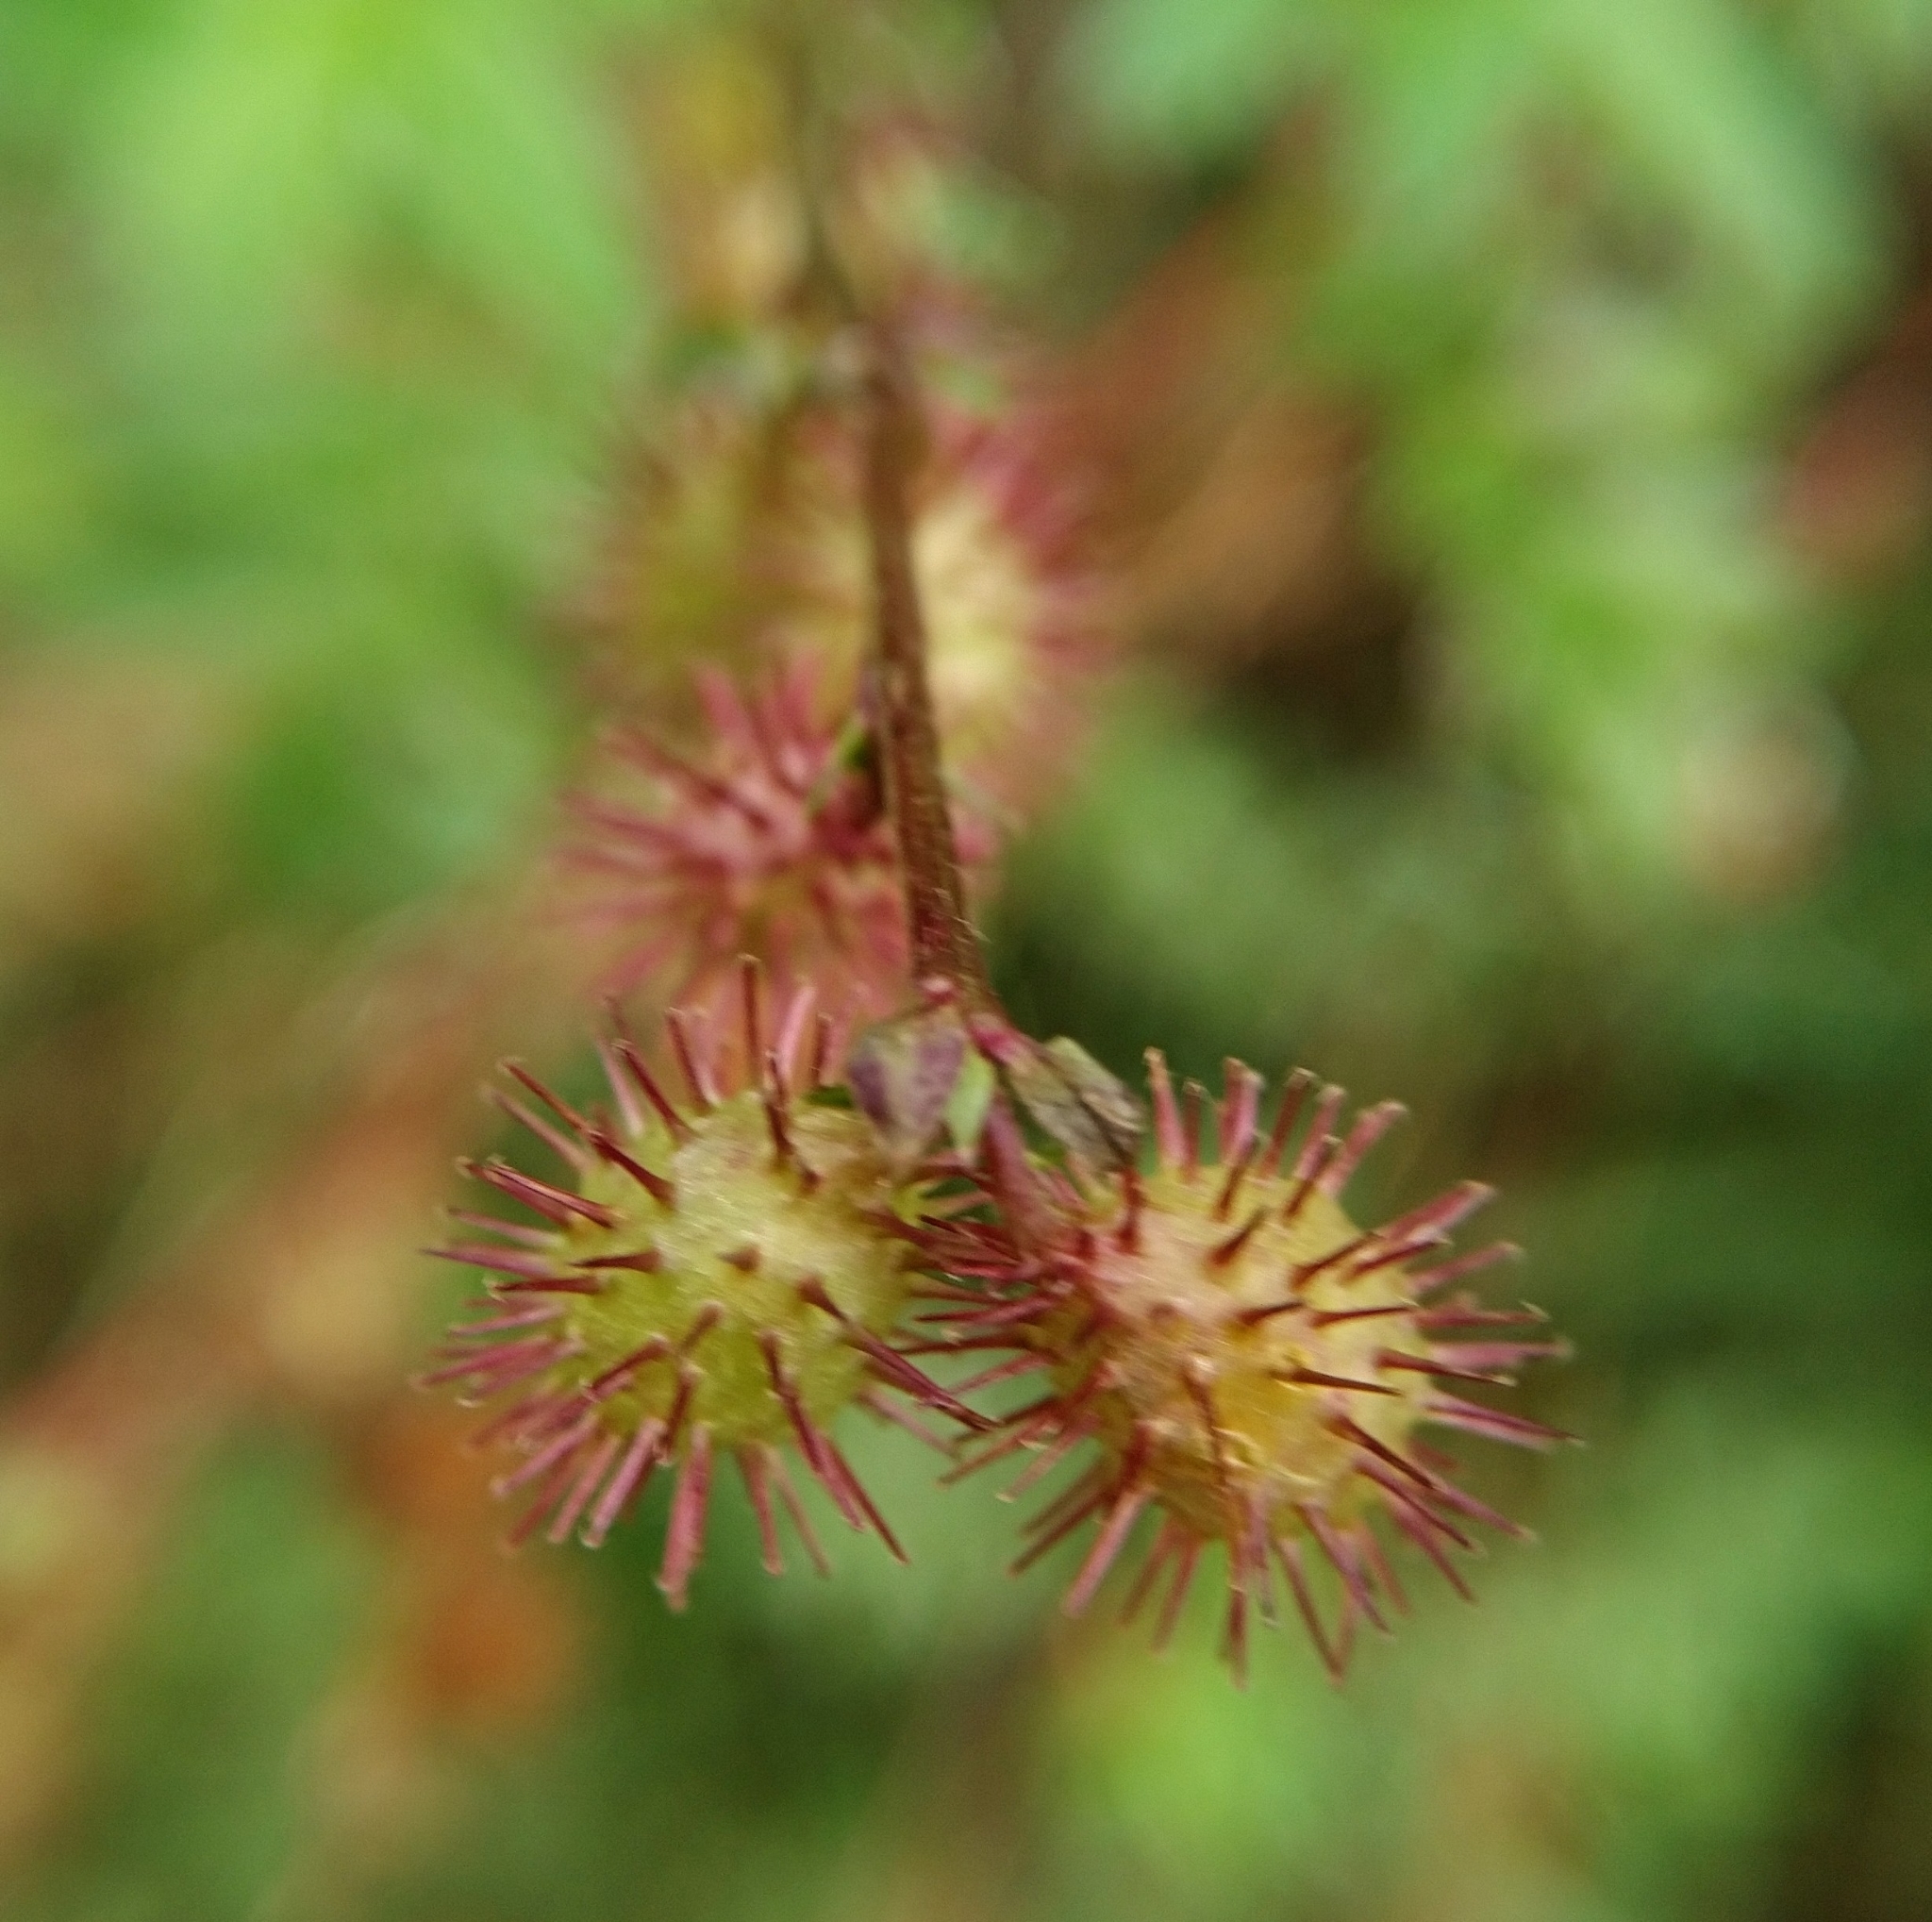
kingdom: Plantae
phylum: Tracheophyta
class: Magnoliopsida
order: Rosales
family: Rosaceae
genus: Acaena
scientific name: Acaena elongata
